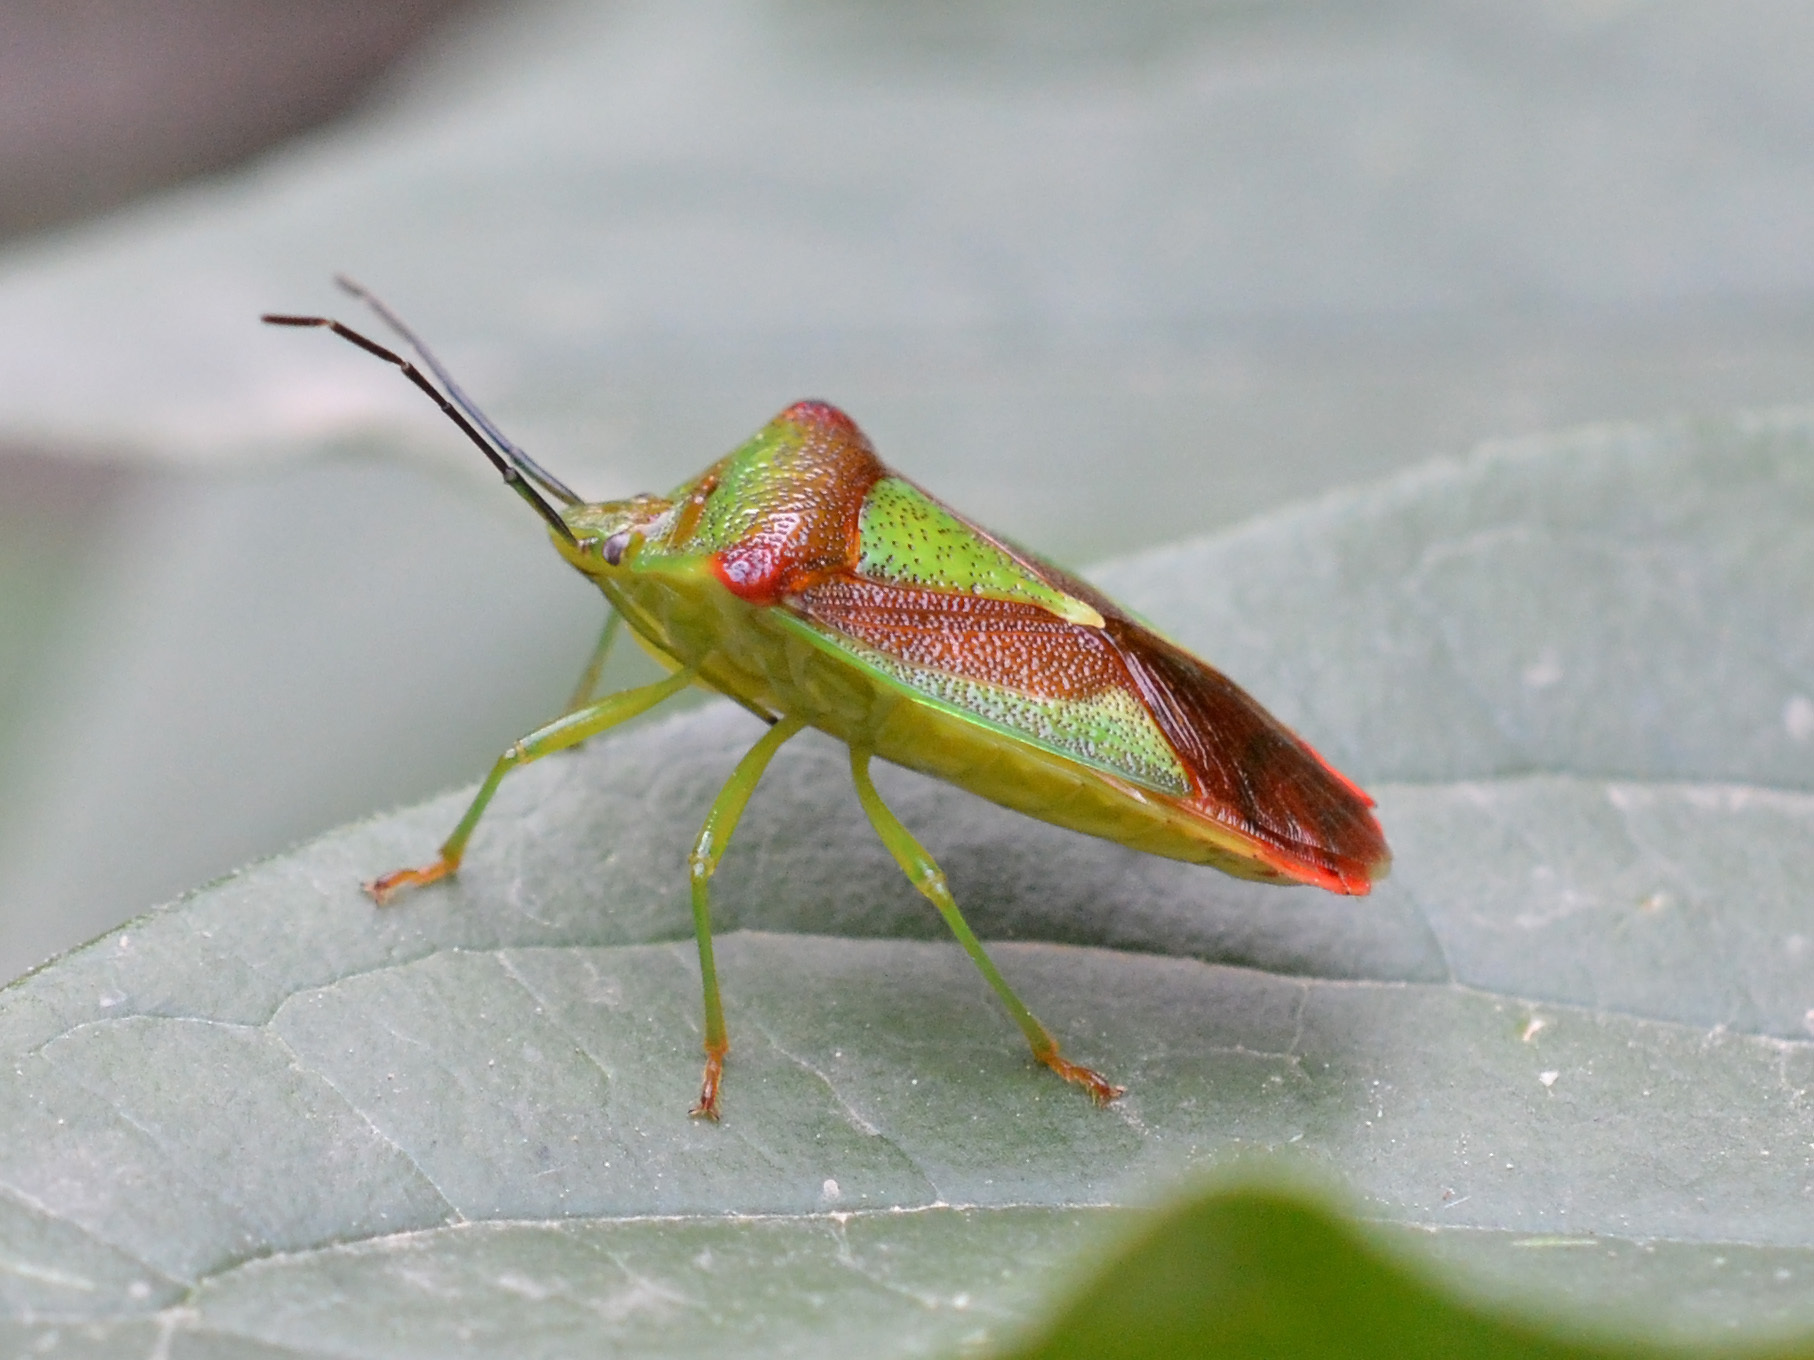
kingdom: Animalia
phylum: Arthropoda
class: Insecta
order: Hemiptera
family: Acanthosomatidae
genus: Acanthosoma
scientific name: Acanthosoma haemorrhoidale
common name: Hawthorn shieldbug
